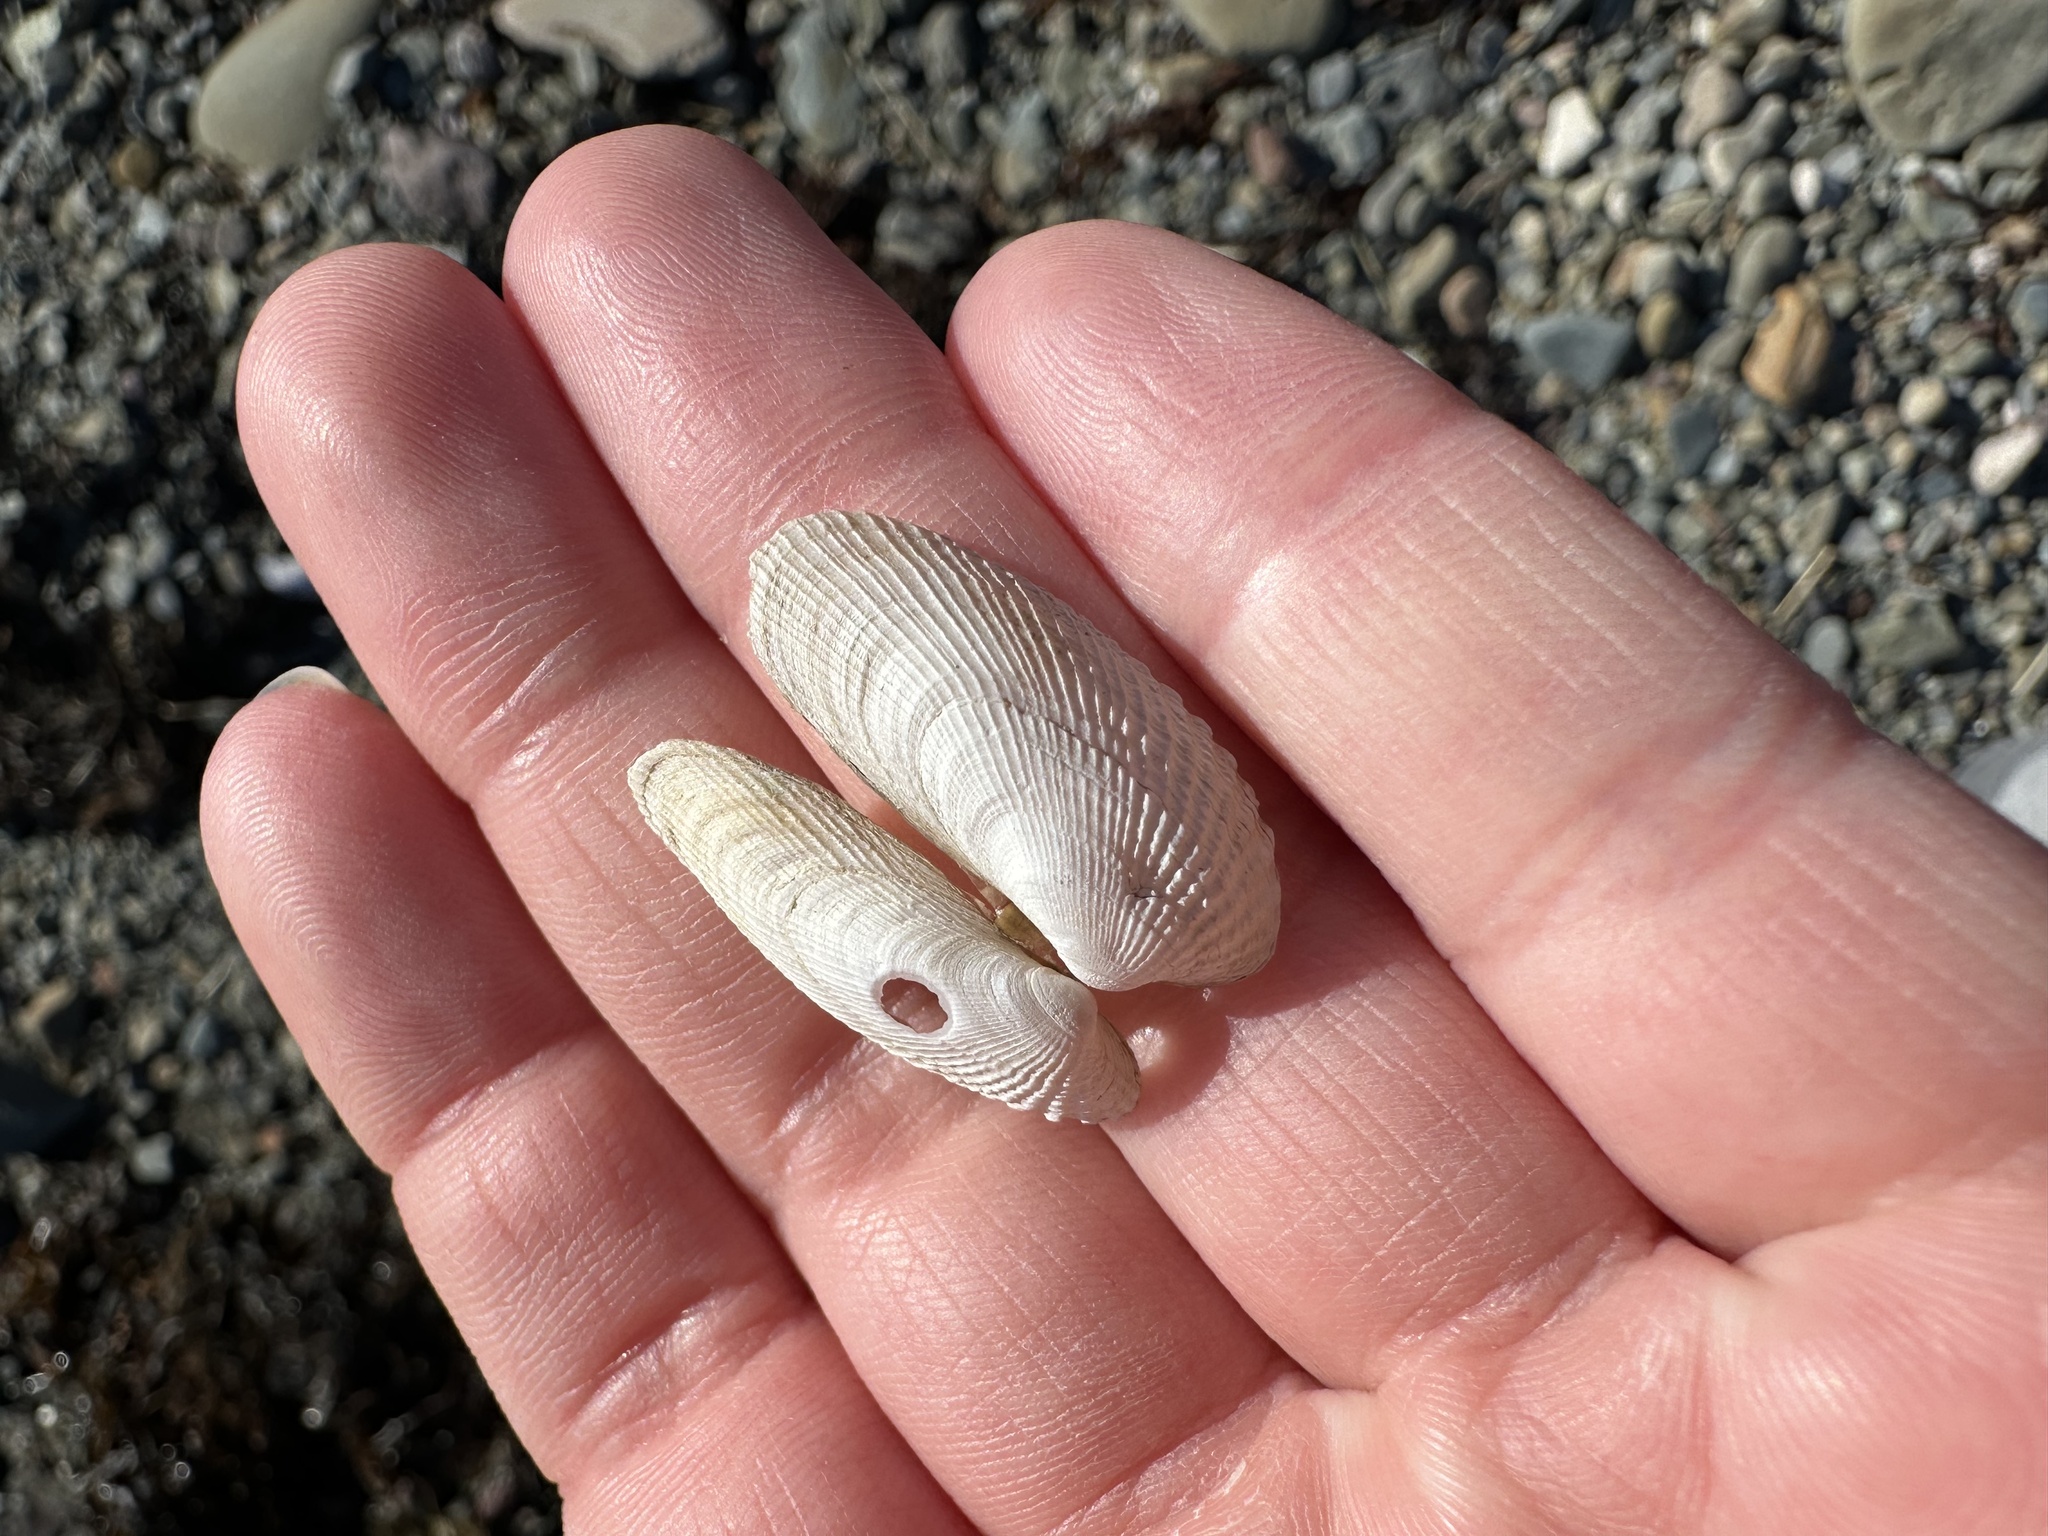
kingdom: Animalia
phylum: Mollusca
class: Bivalvia
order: Venerida
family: Veneridae
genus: Petricolaria
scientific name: Petricolaria pholadiformis
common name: American piddock
